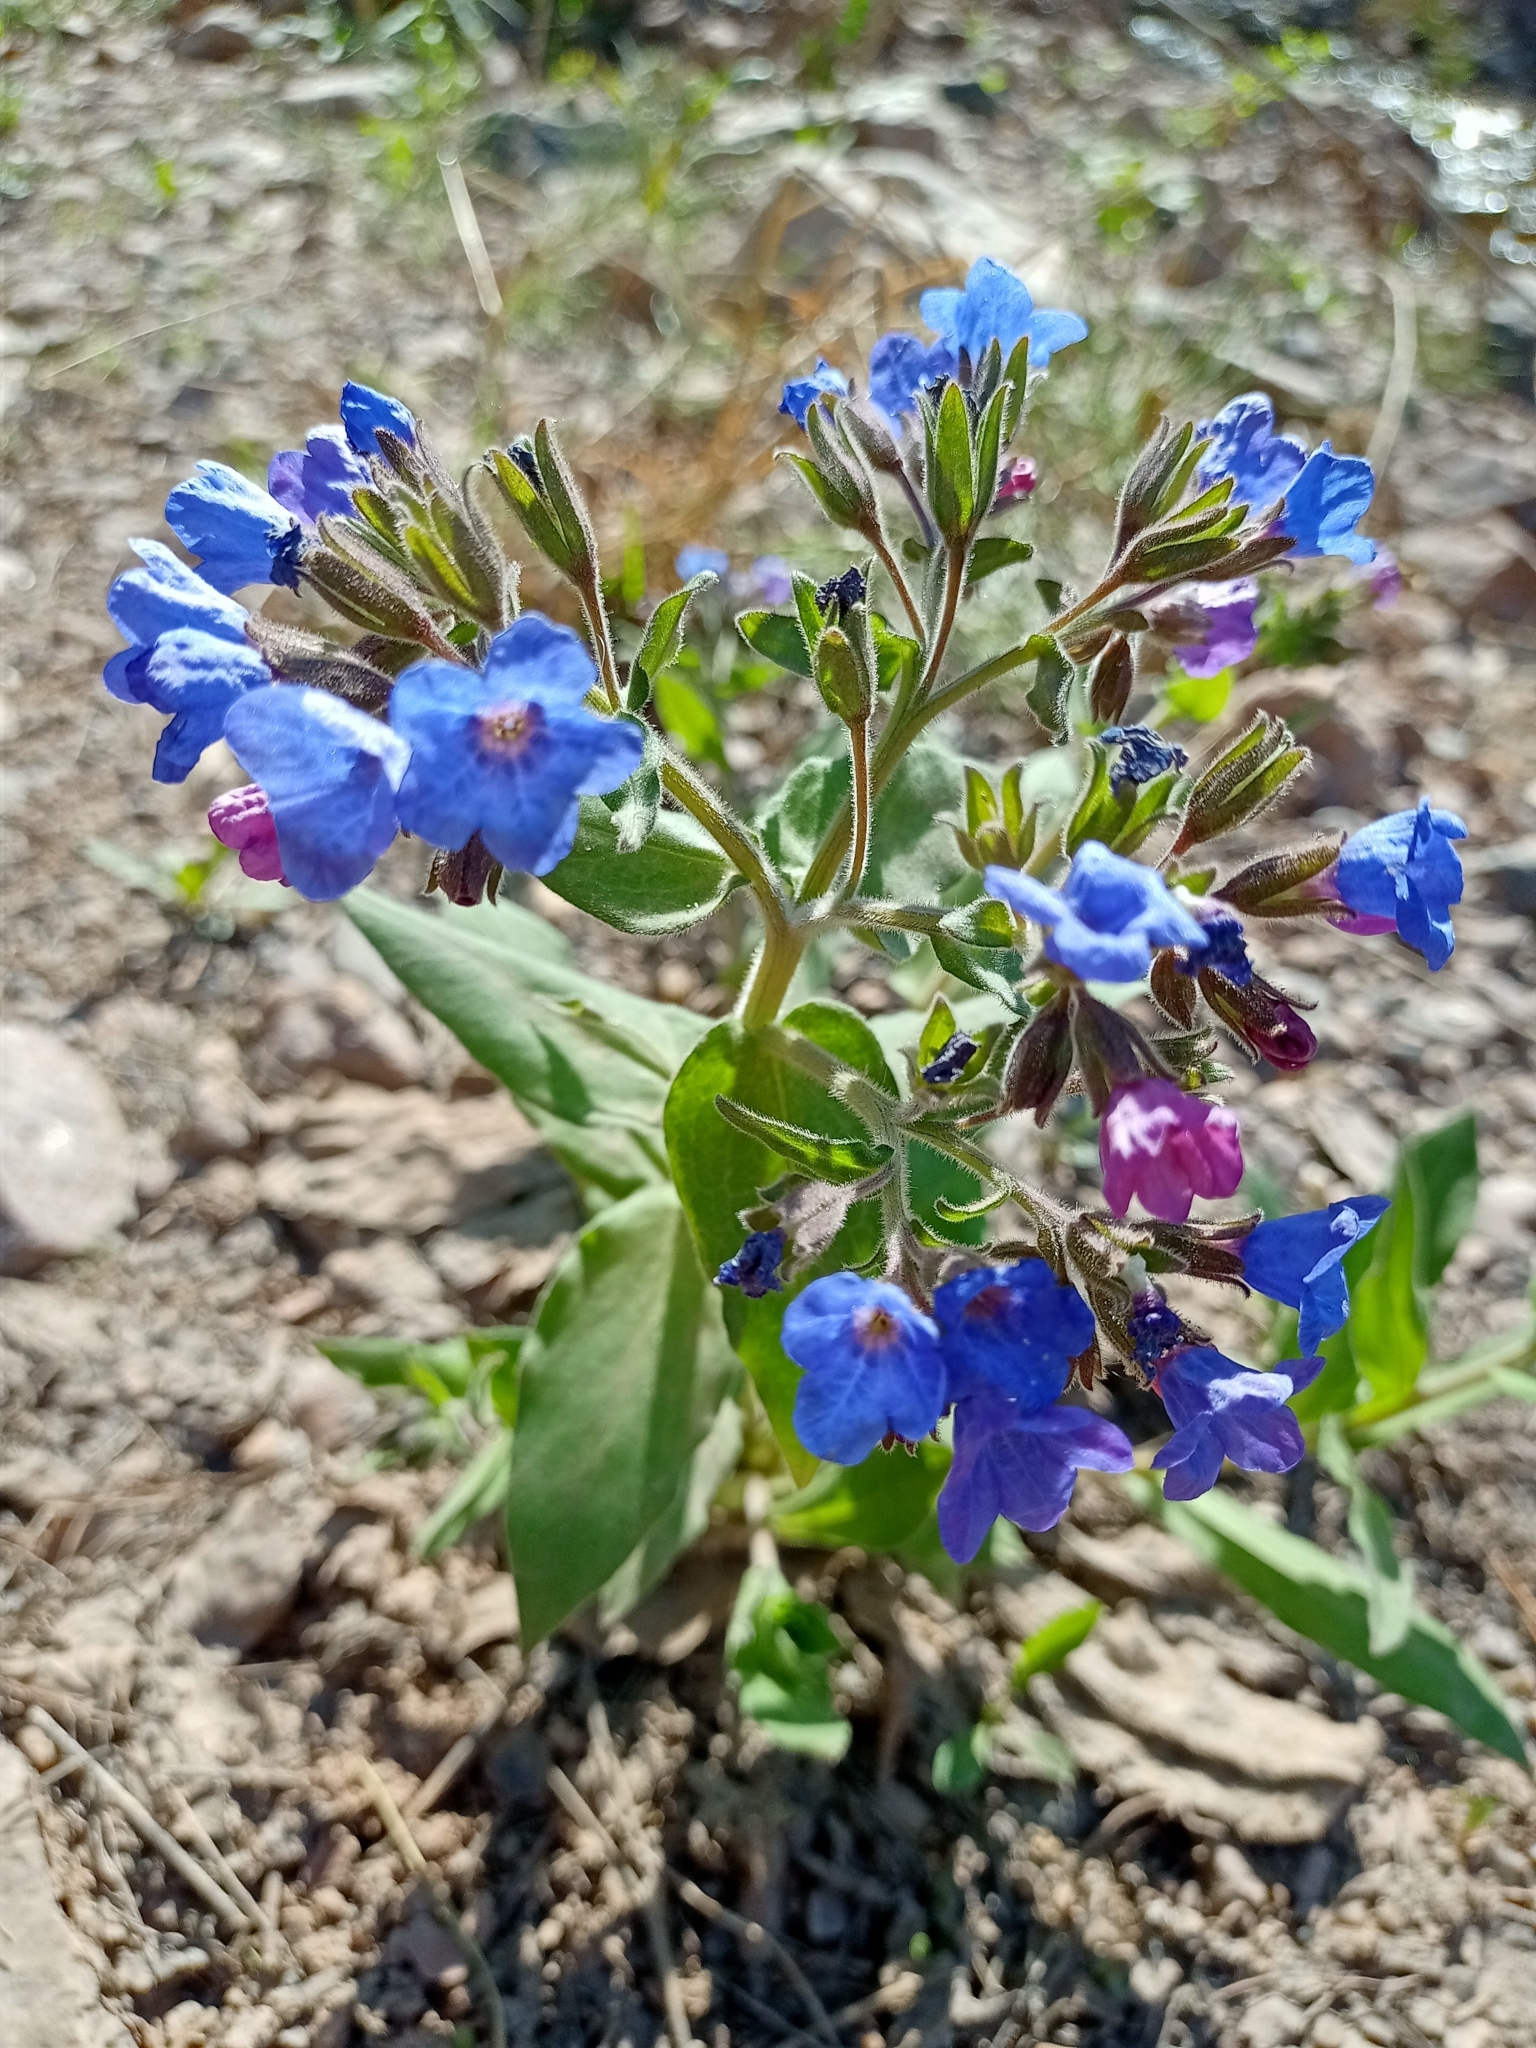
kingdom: Plantae
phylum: Tracheophyta
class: Magnoliopsida
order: Boraginales
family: Boraginaceae
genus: Pulmonaria
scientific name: Pulmonaria mollis
